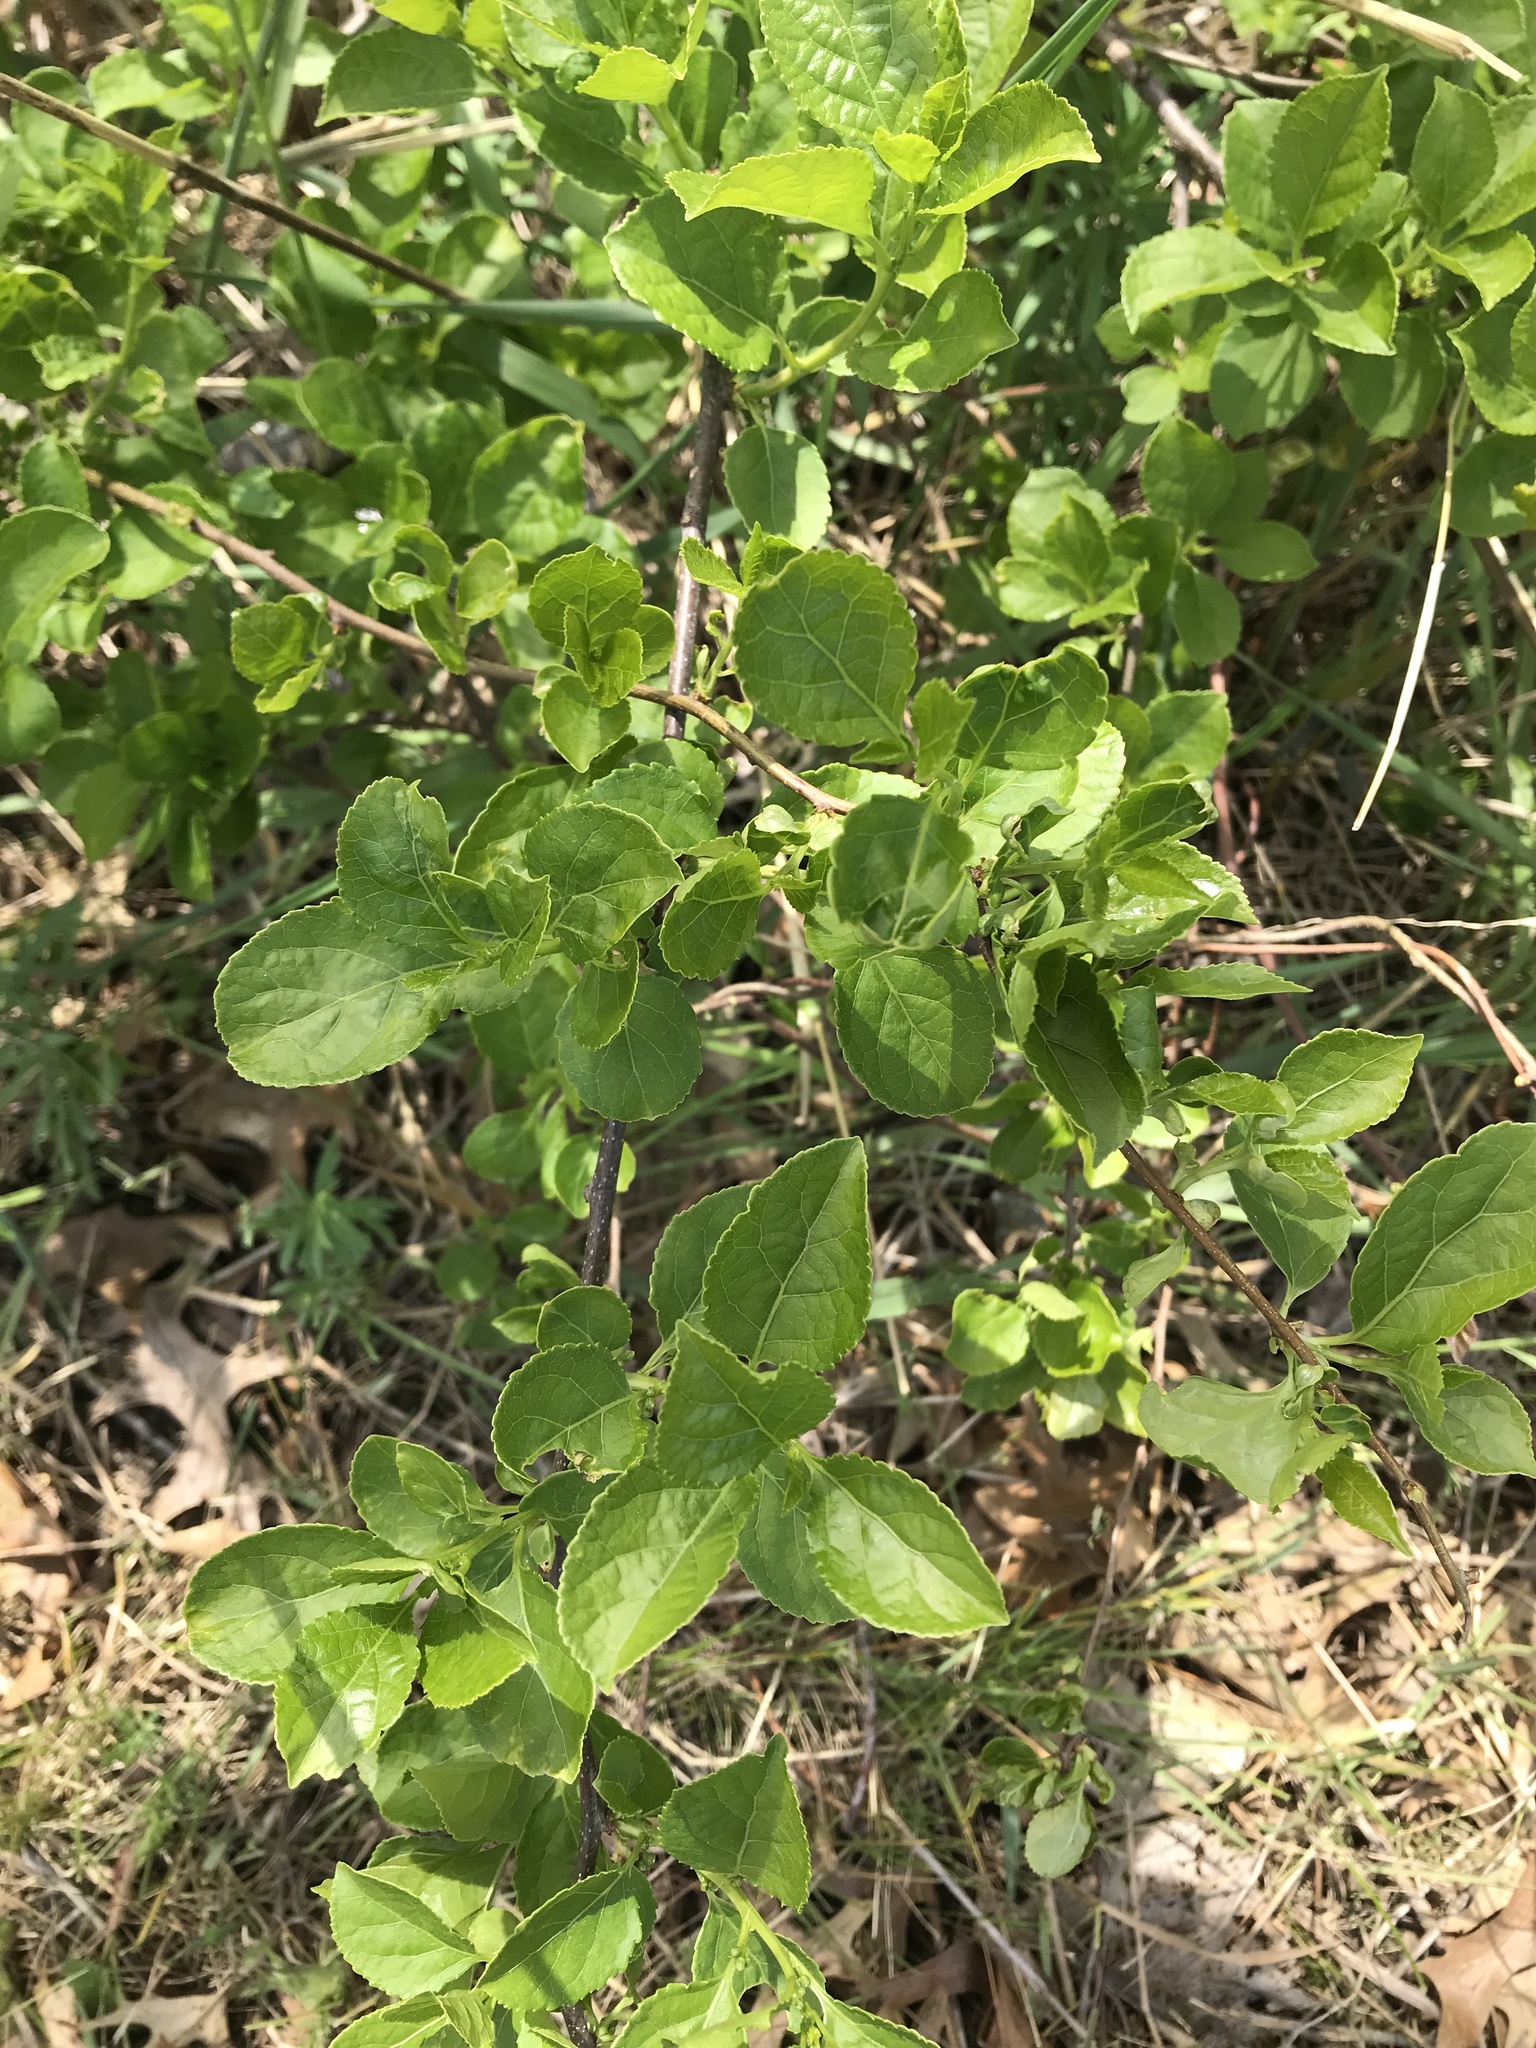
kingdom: Plantae
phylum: Tracheophyta
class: Magnoliopsida
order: Celastrales
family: Celastraceae
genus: Celastrus
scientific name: Celastrus orbiculatus
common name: Oriental bittersweet
